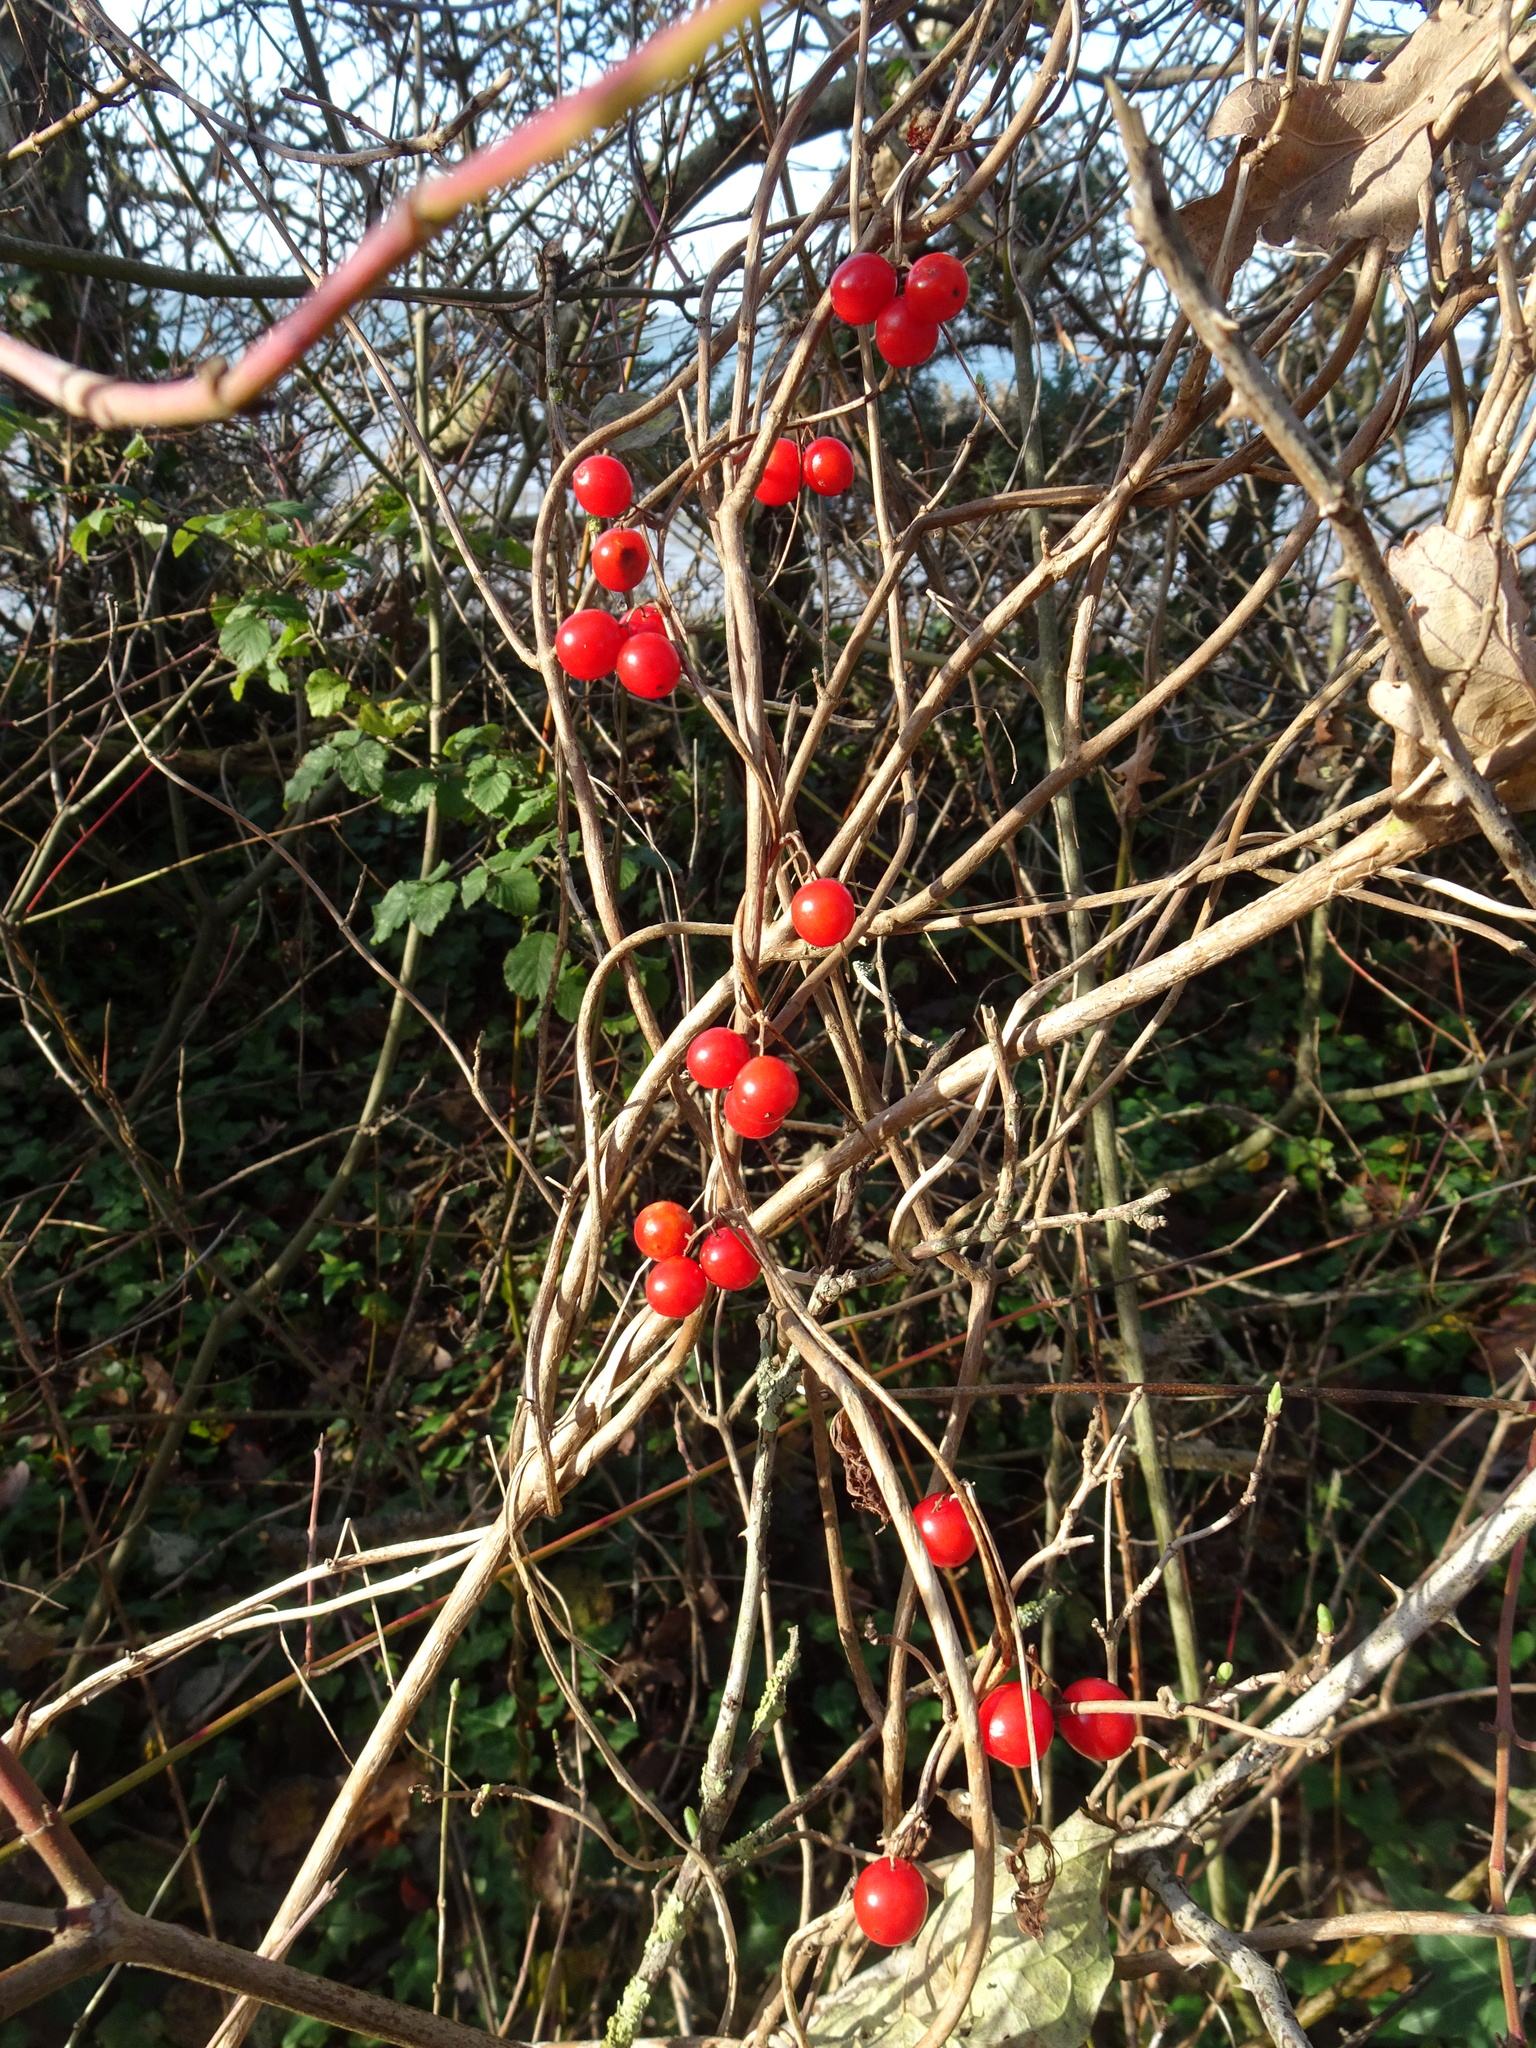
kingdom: Plantae
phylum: Tracheophyta
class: Liliopsida
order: Dioscoreales
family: Dioscoreaceae
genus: Dioscorea
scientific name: Dioscorea communis
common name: Black-bindweed
